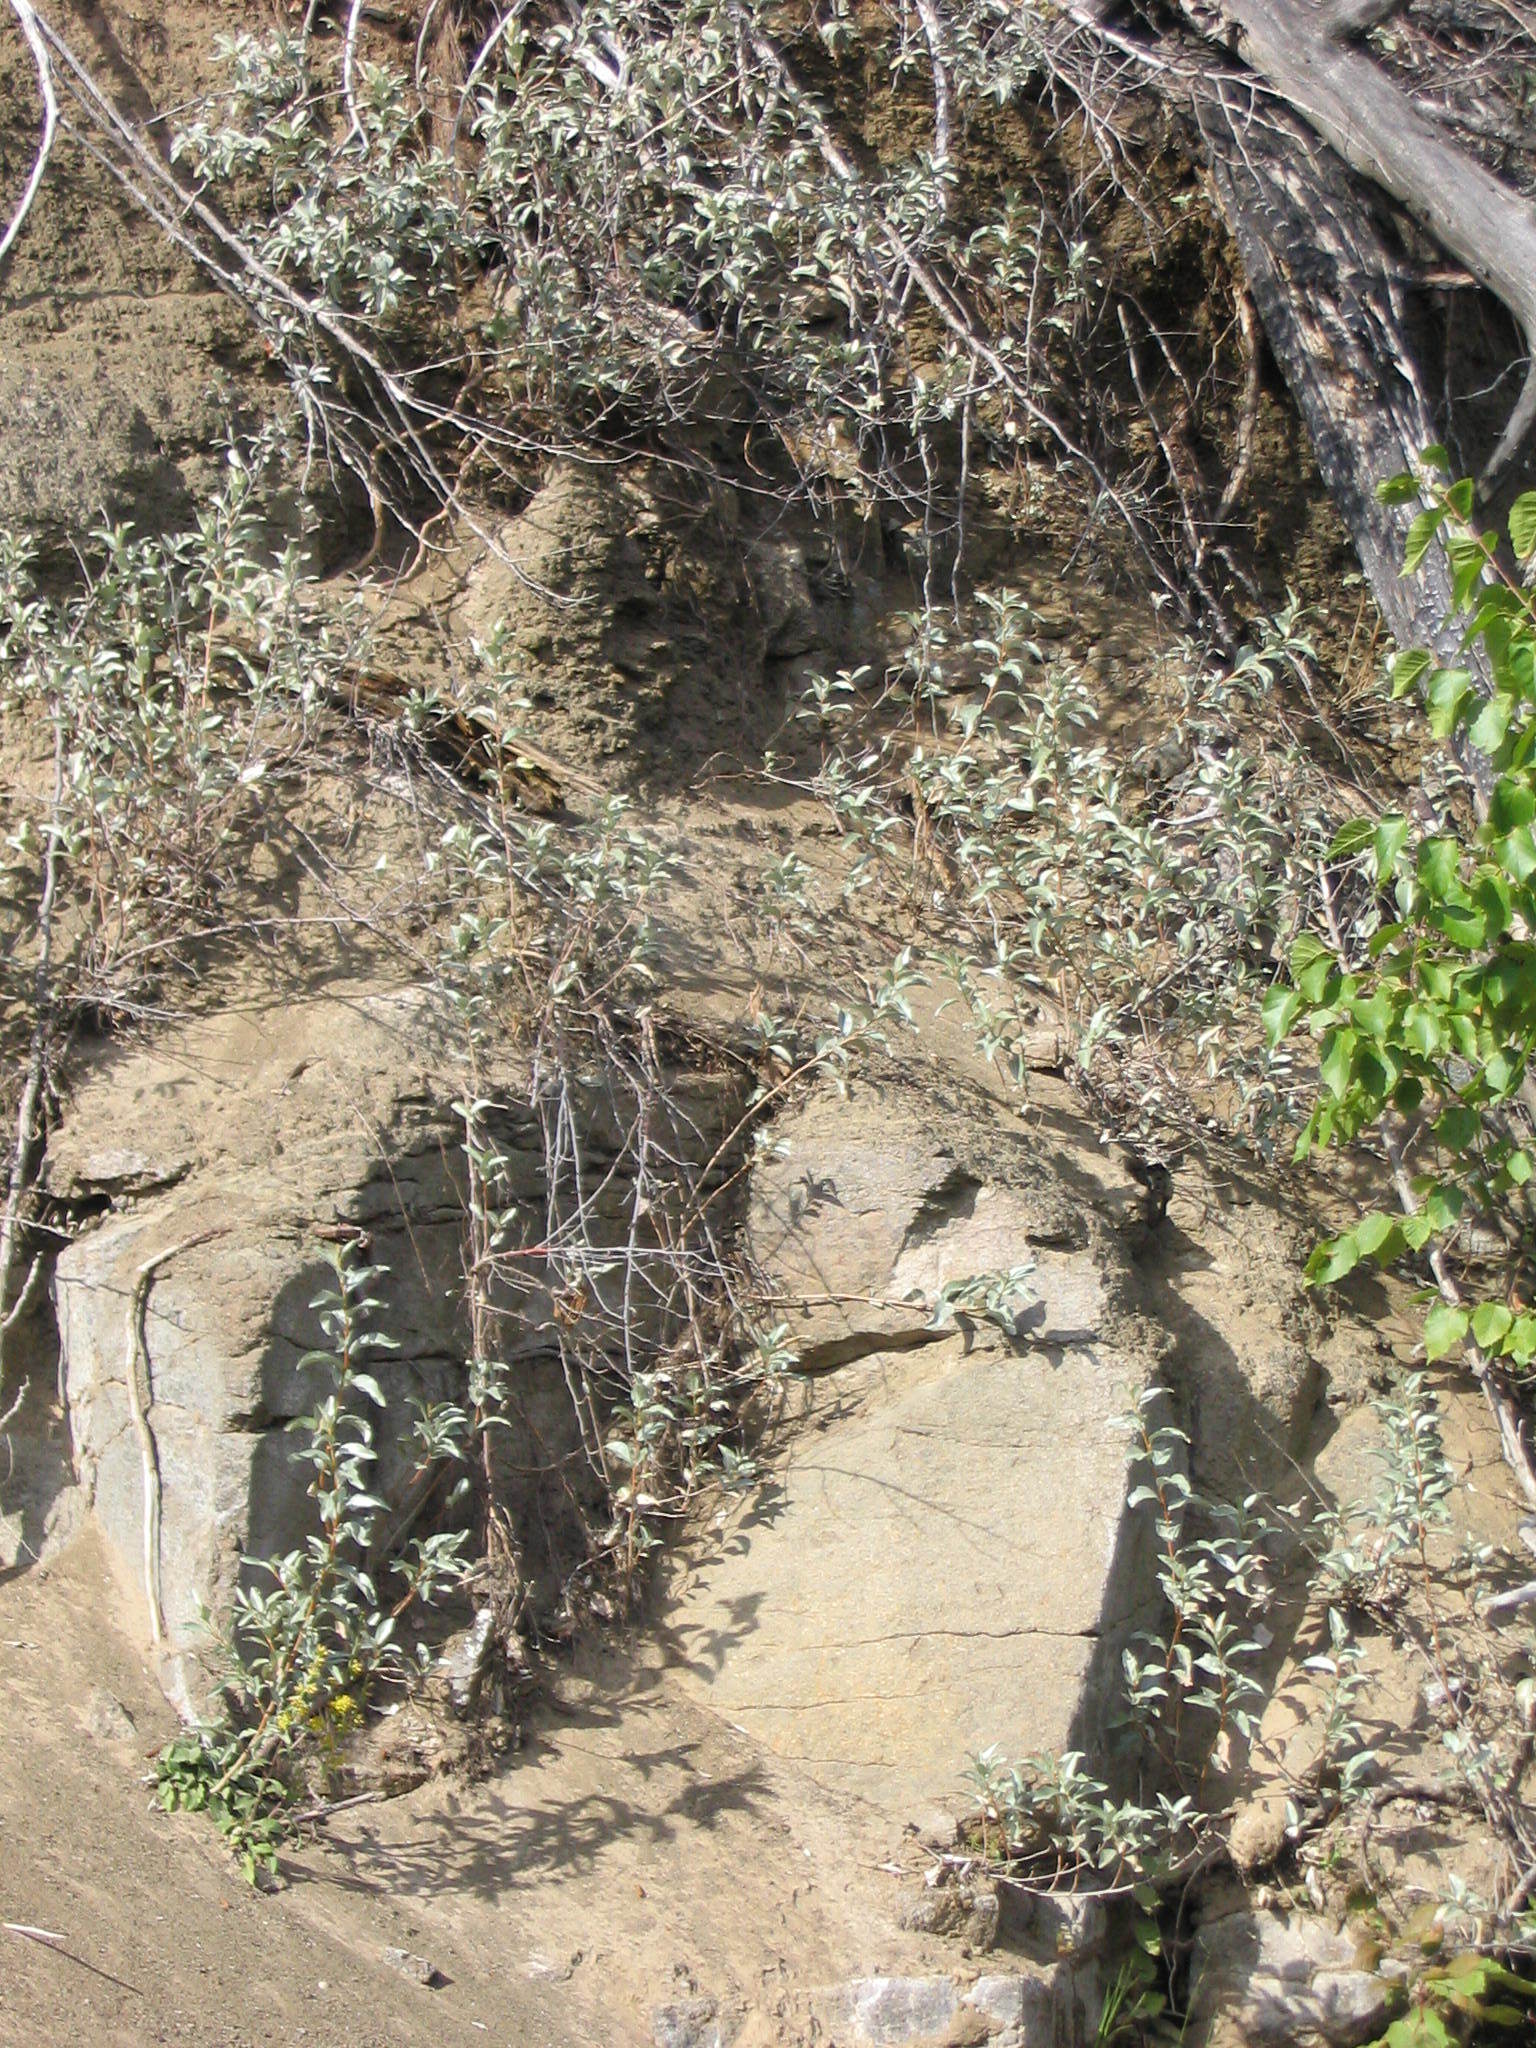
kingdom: Plantae
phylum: Tracheophyta
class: Magnoliopsida
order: Rosales
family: Elaeagnaceae
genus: Elaeagnus
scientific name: Elaeagnus commutata
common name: Silverberry
